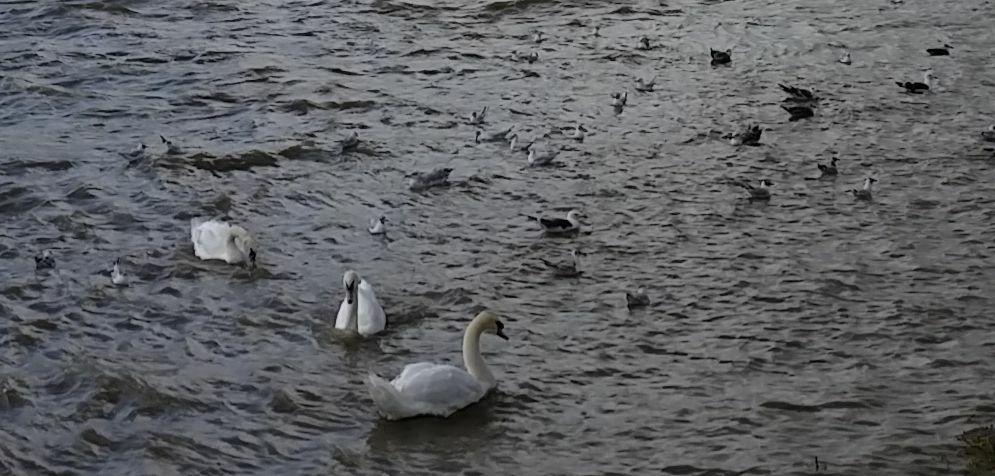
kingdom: Animalia
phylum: Chordata
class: Aves
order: Anseriformes
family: Anatidae
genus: Cygnus
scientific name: Cygnus olor
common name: Mute swan
